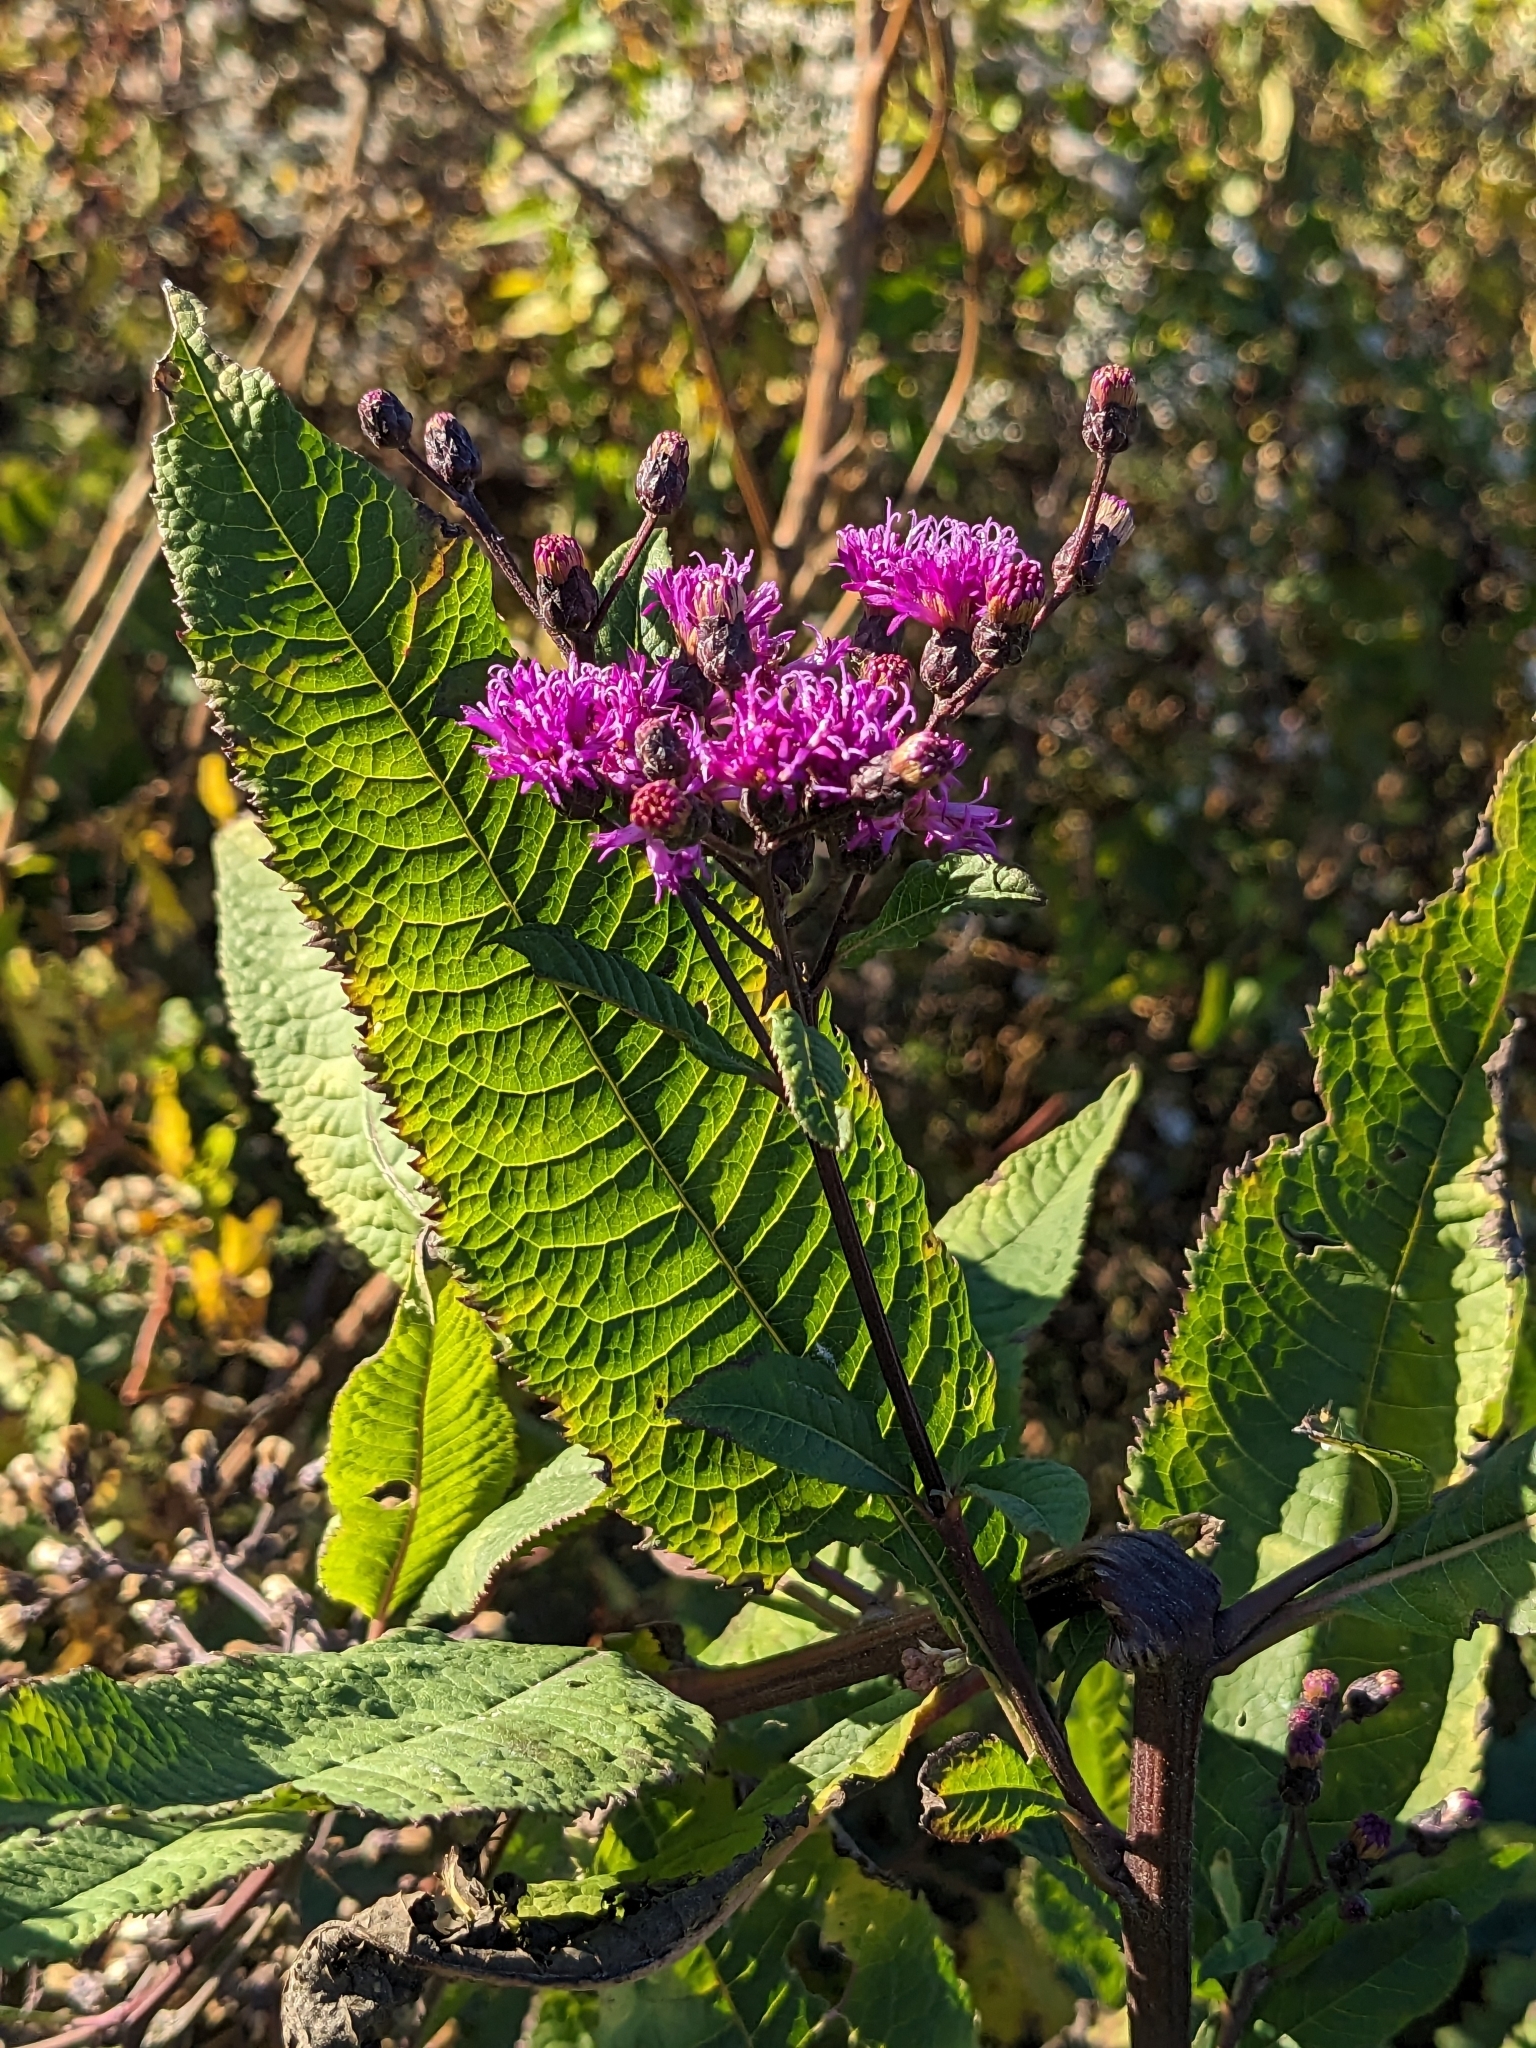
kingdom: Plantae
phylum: Tracheophyta
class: Magnoliopsida
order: Asterales
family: Asteraceae
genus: Vernonia
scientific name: Vernonia gigantea
